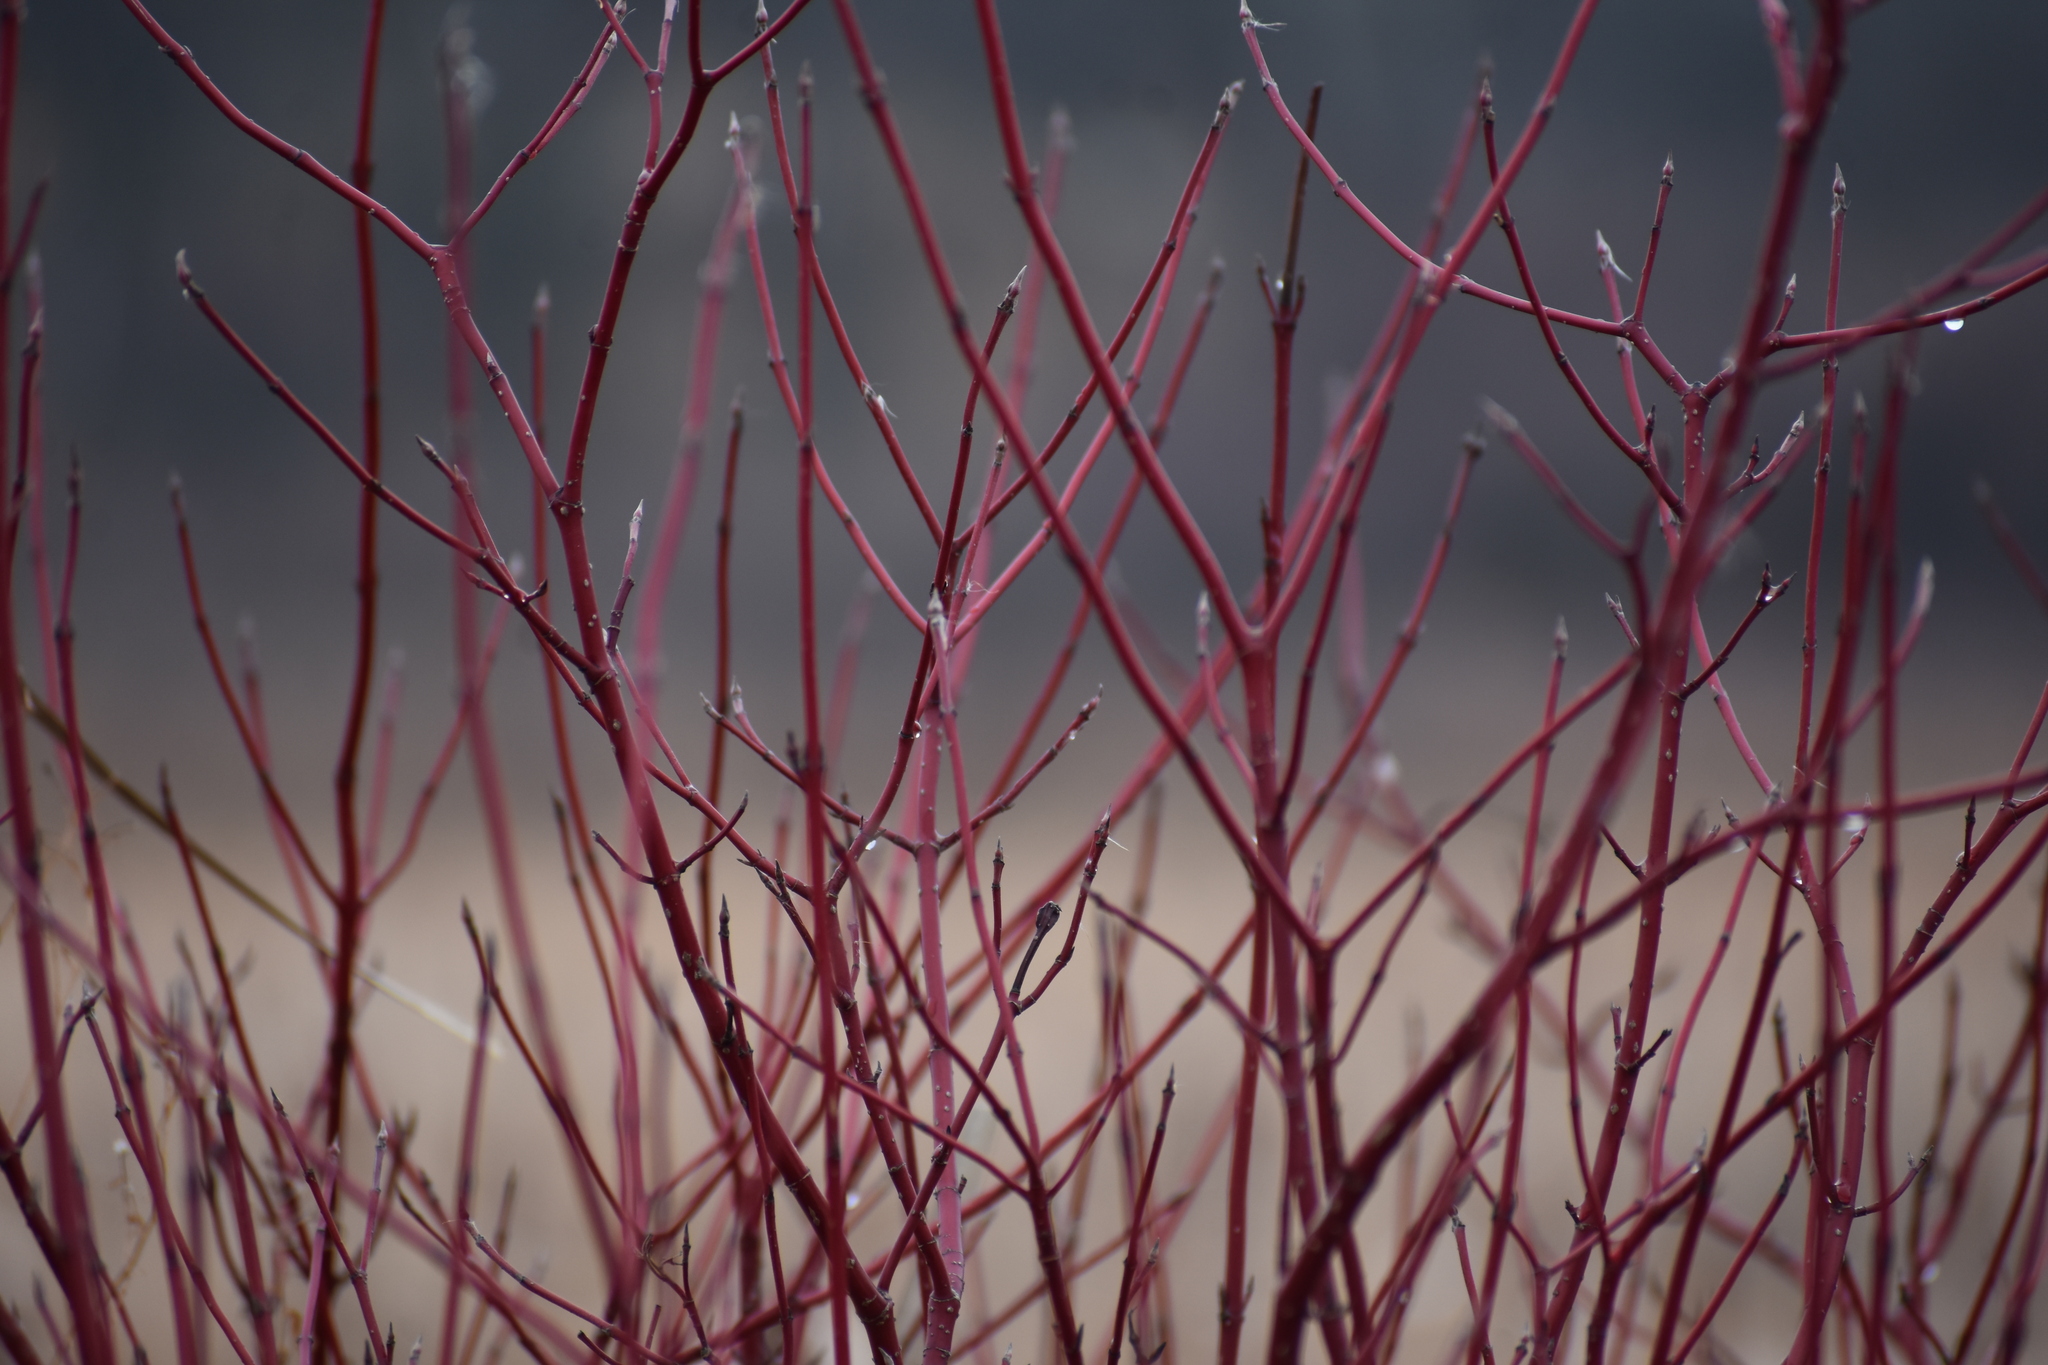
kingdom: Plantae
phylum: Tracheophyta
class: Magnoliopsida
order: Cornales
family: Cornaceae
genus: Cornus
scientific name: Cornus sericea
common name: Red-osier dogwood
